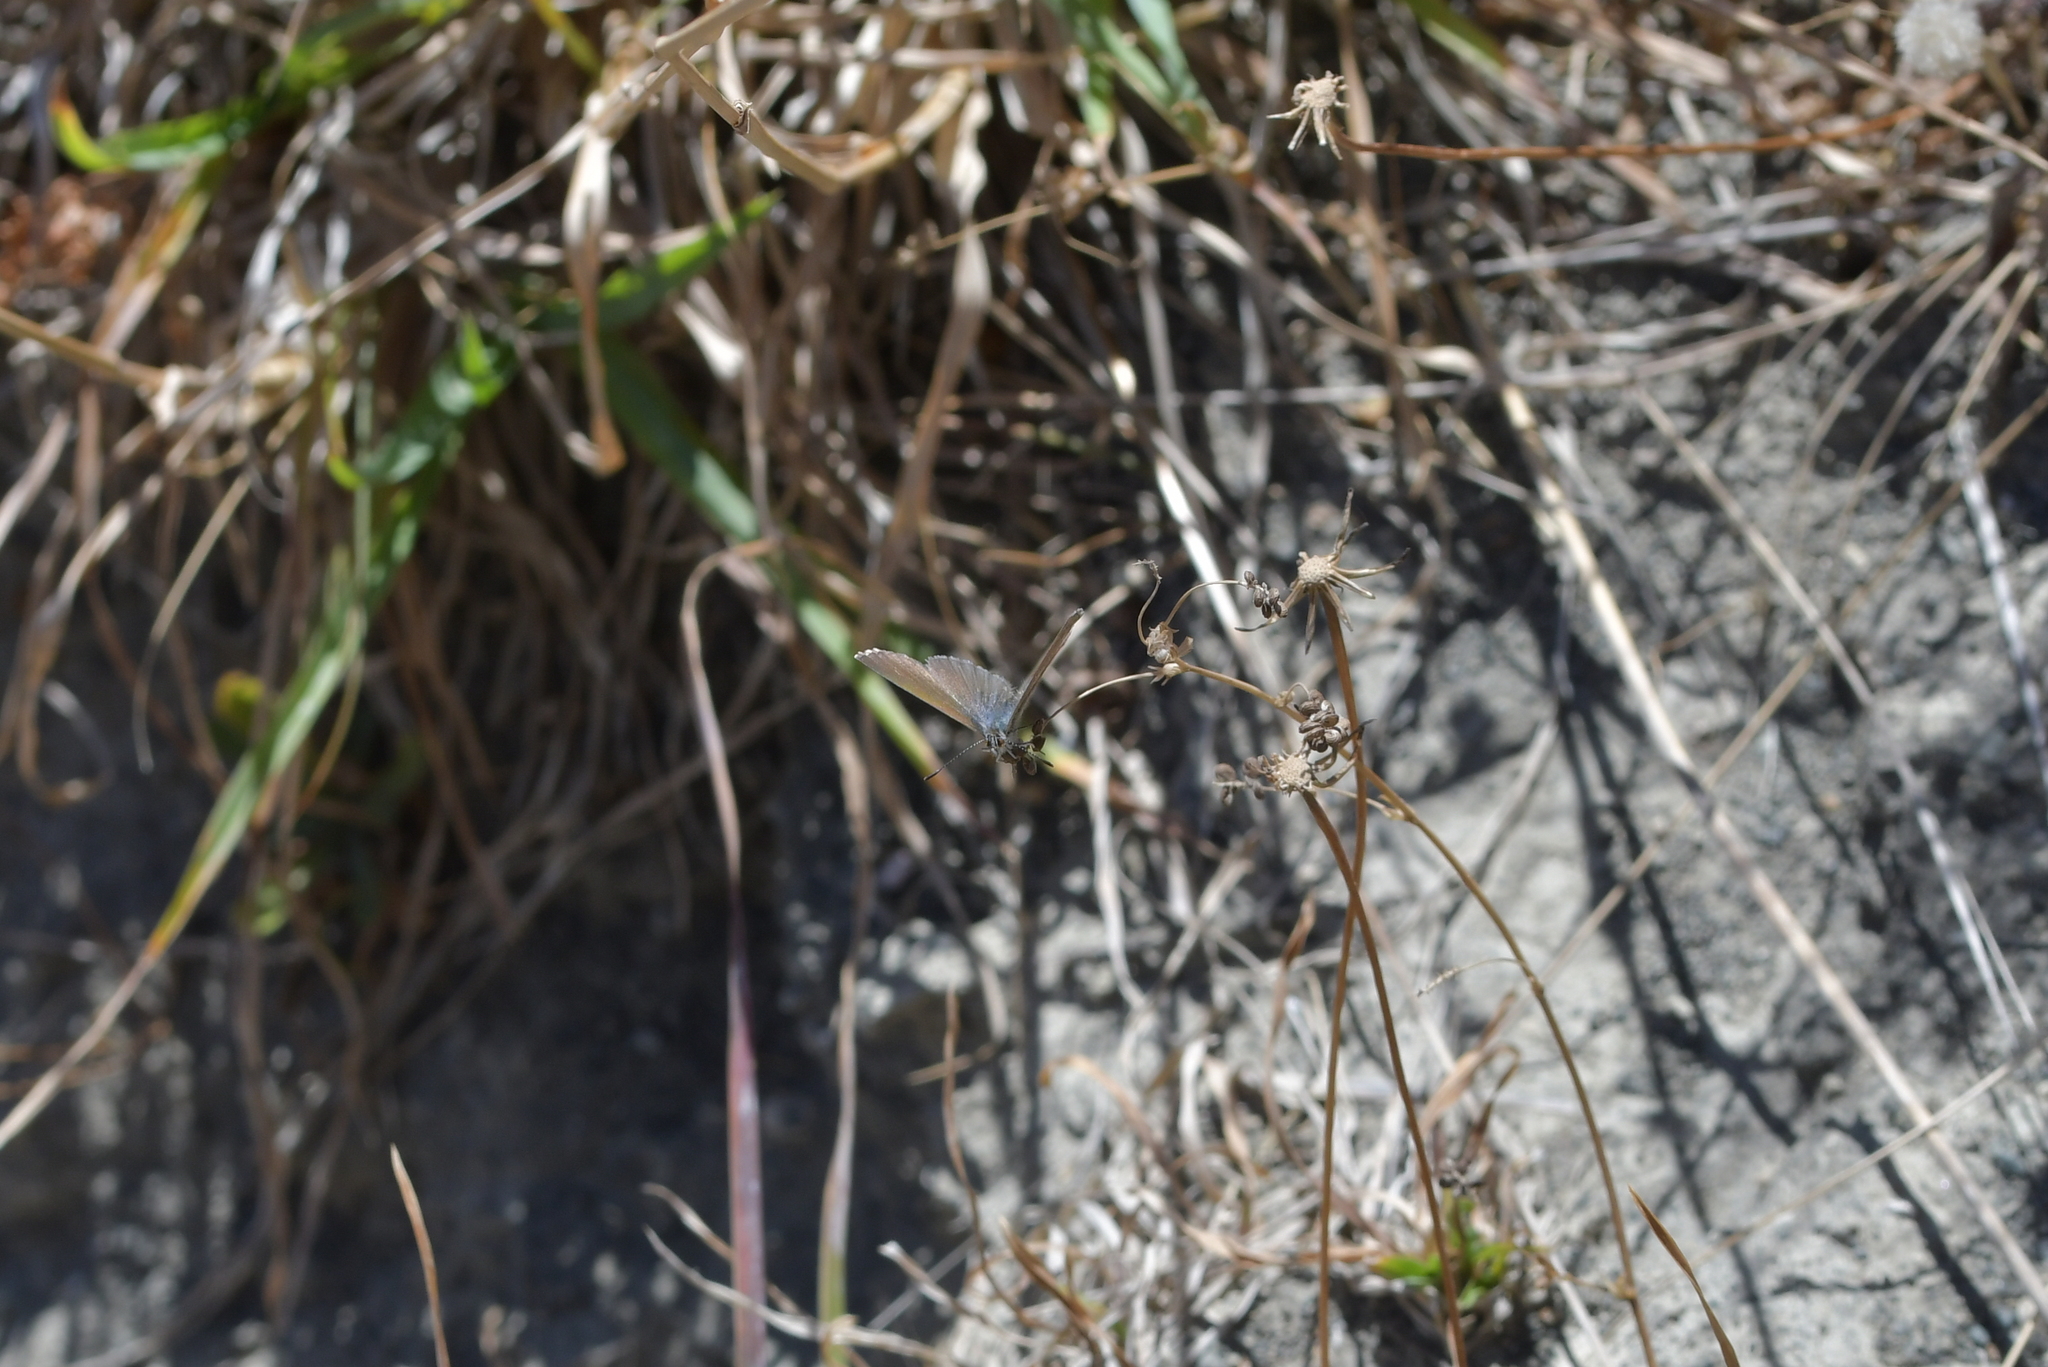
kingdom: Animalia
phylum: Arthropoda
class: Insecta
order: Lepidoptera
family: Lycaenidae
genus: Zizina
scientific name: Zizina labradus
